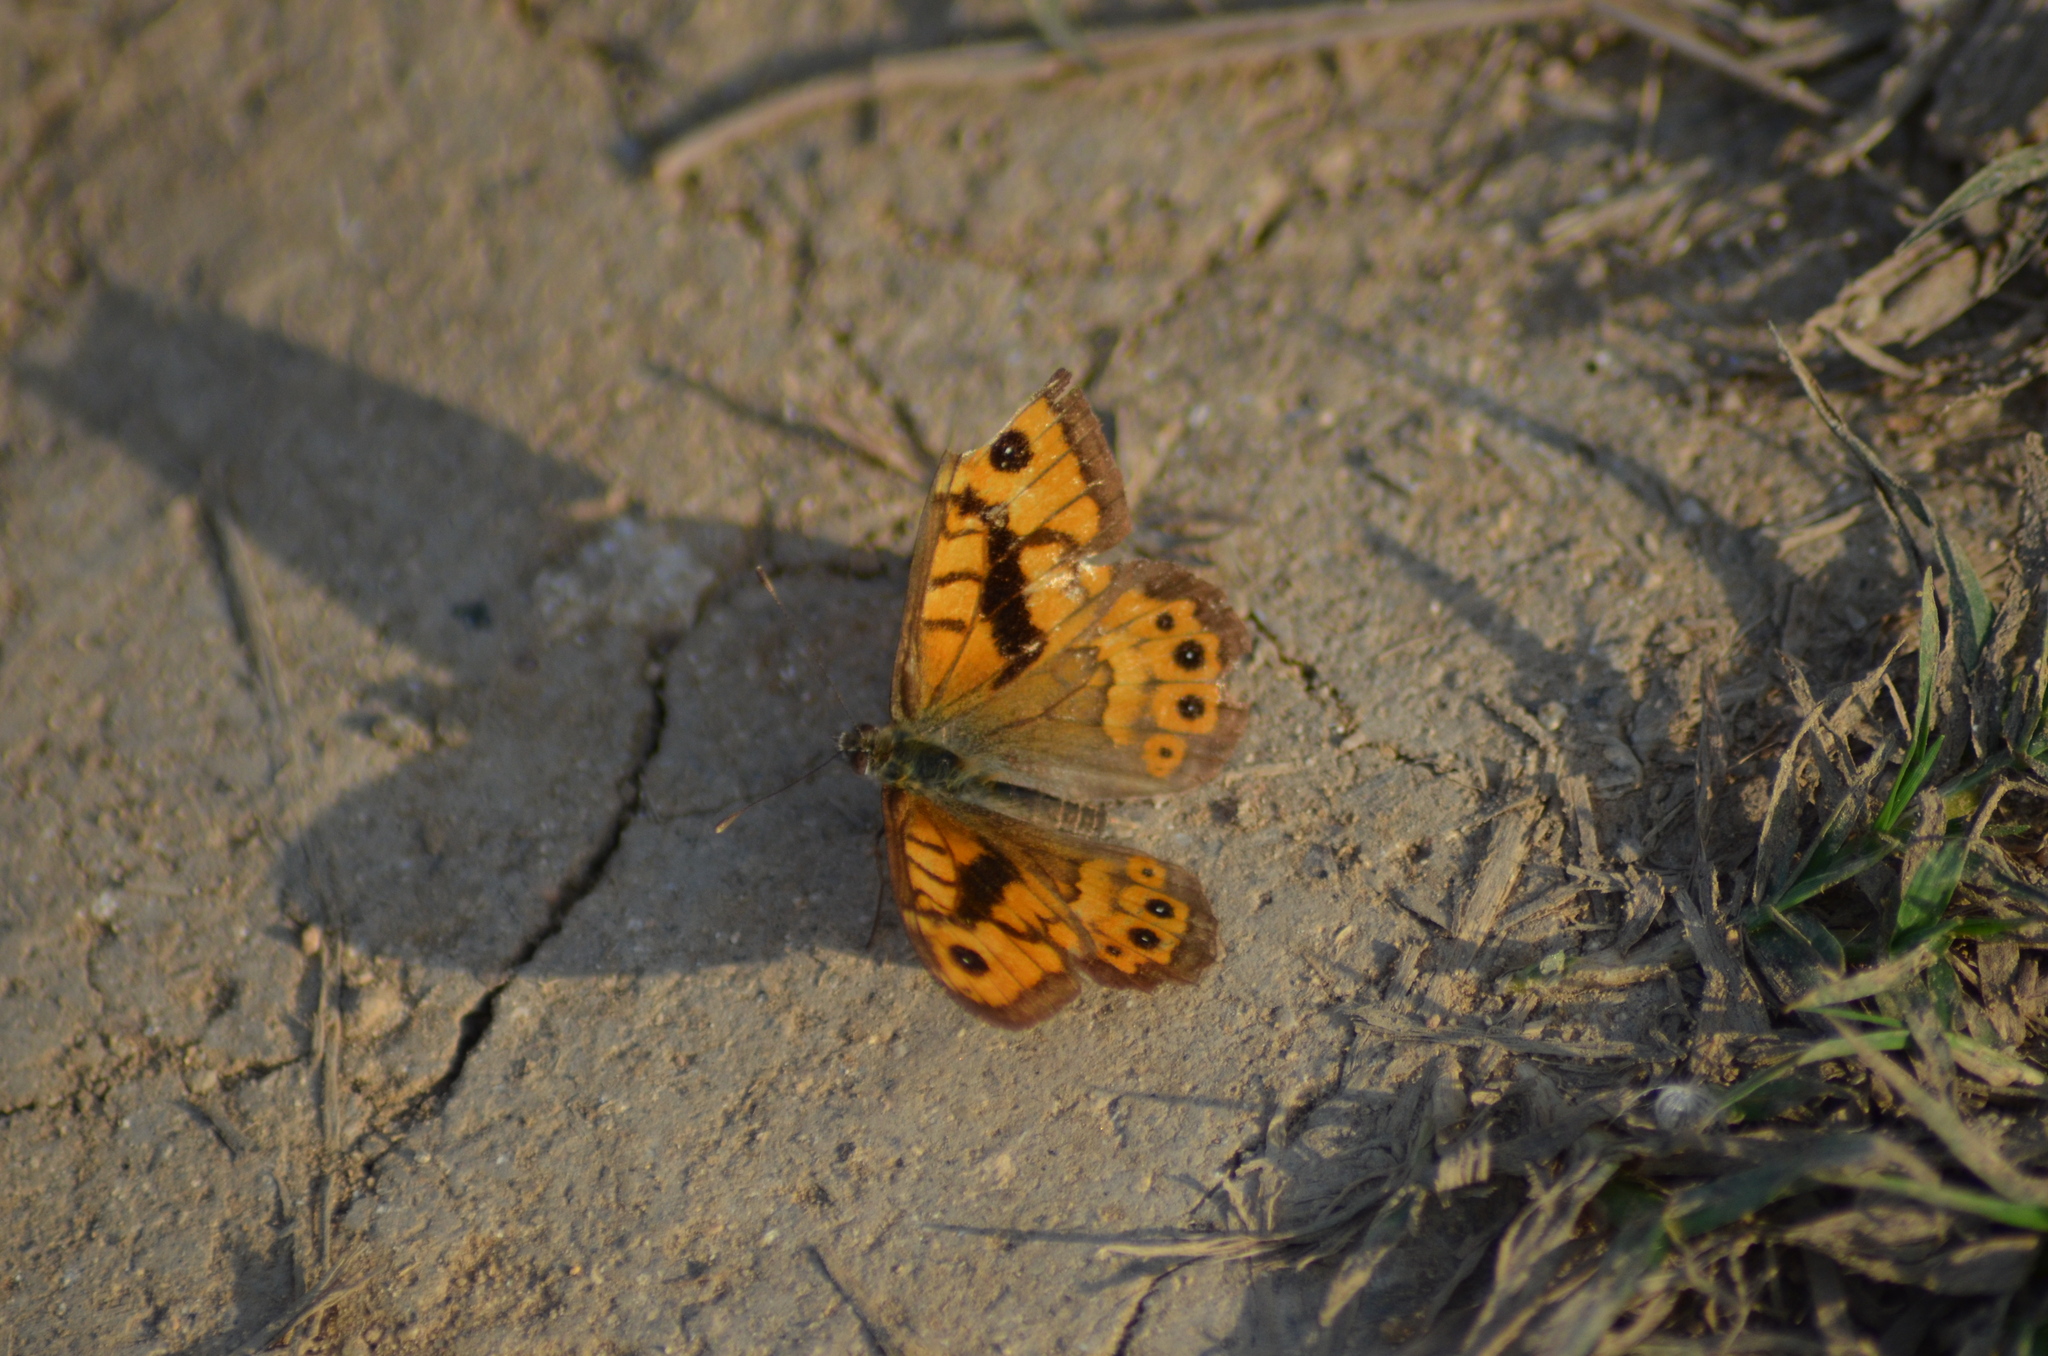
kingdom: Animalia
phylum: Arthropoda
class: Insecta
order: Lepidoptera
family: Nymphalidae
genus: Pararge
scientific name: Pararge Lasiommata megera
